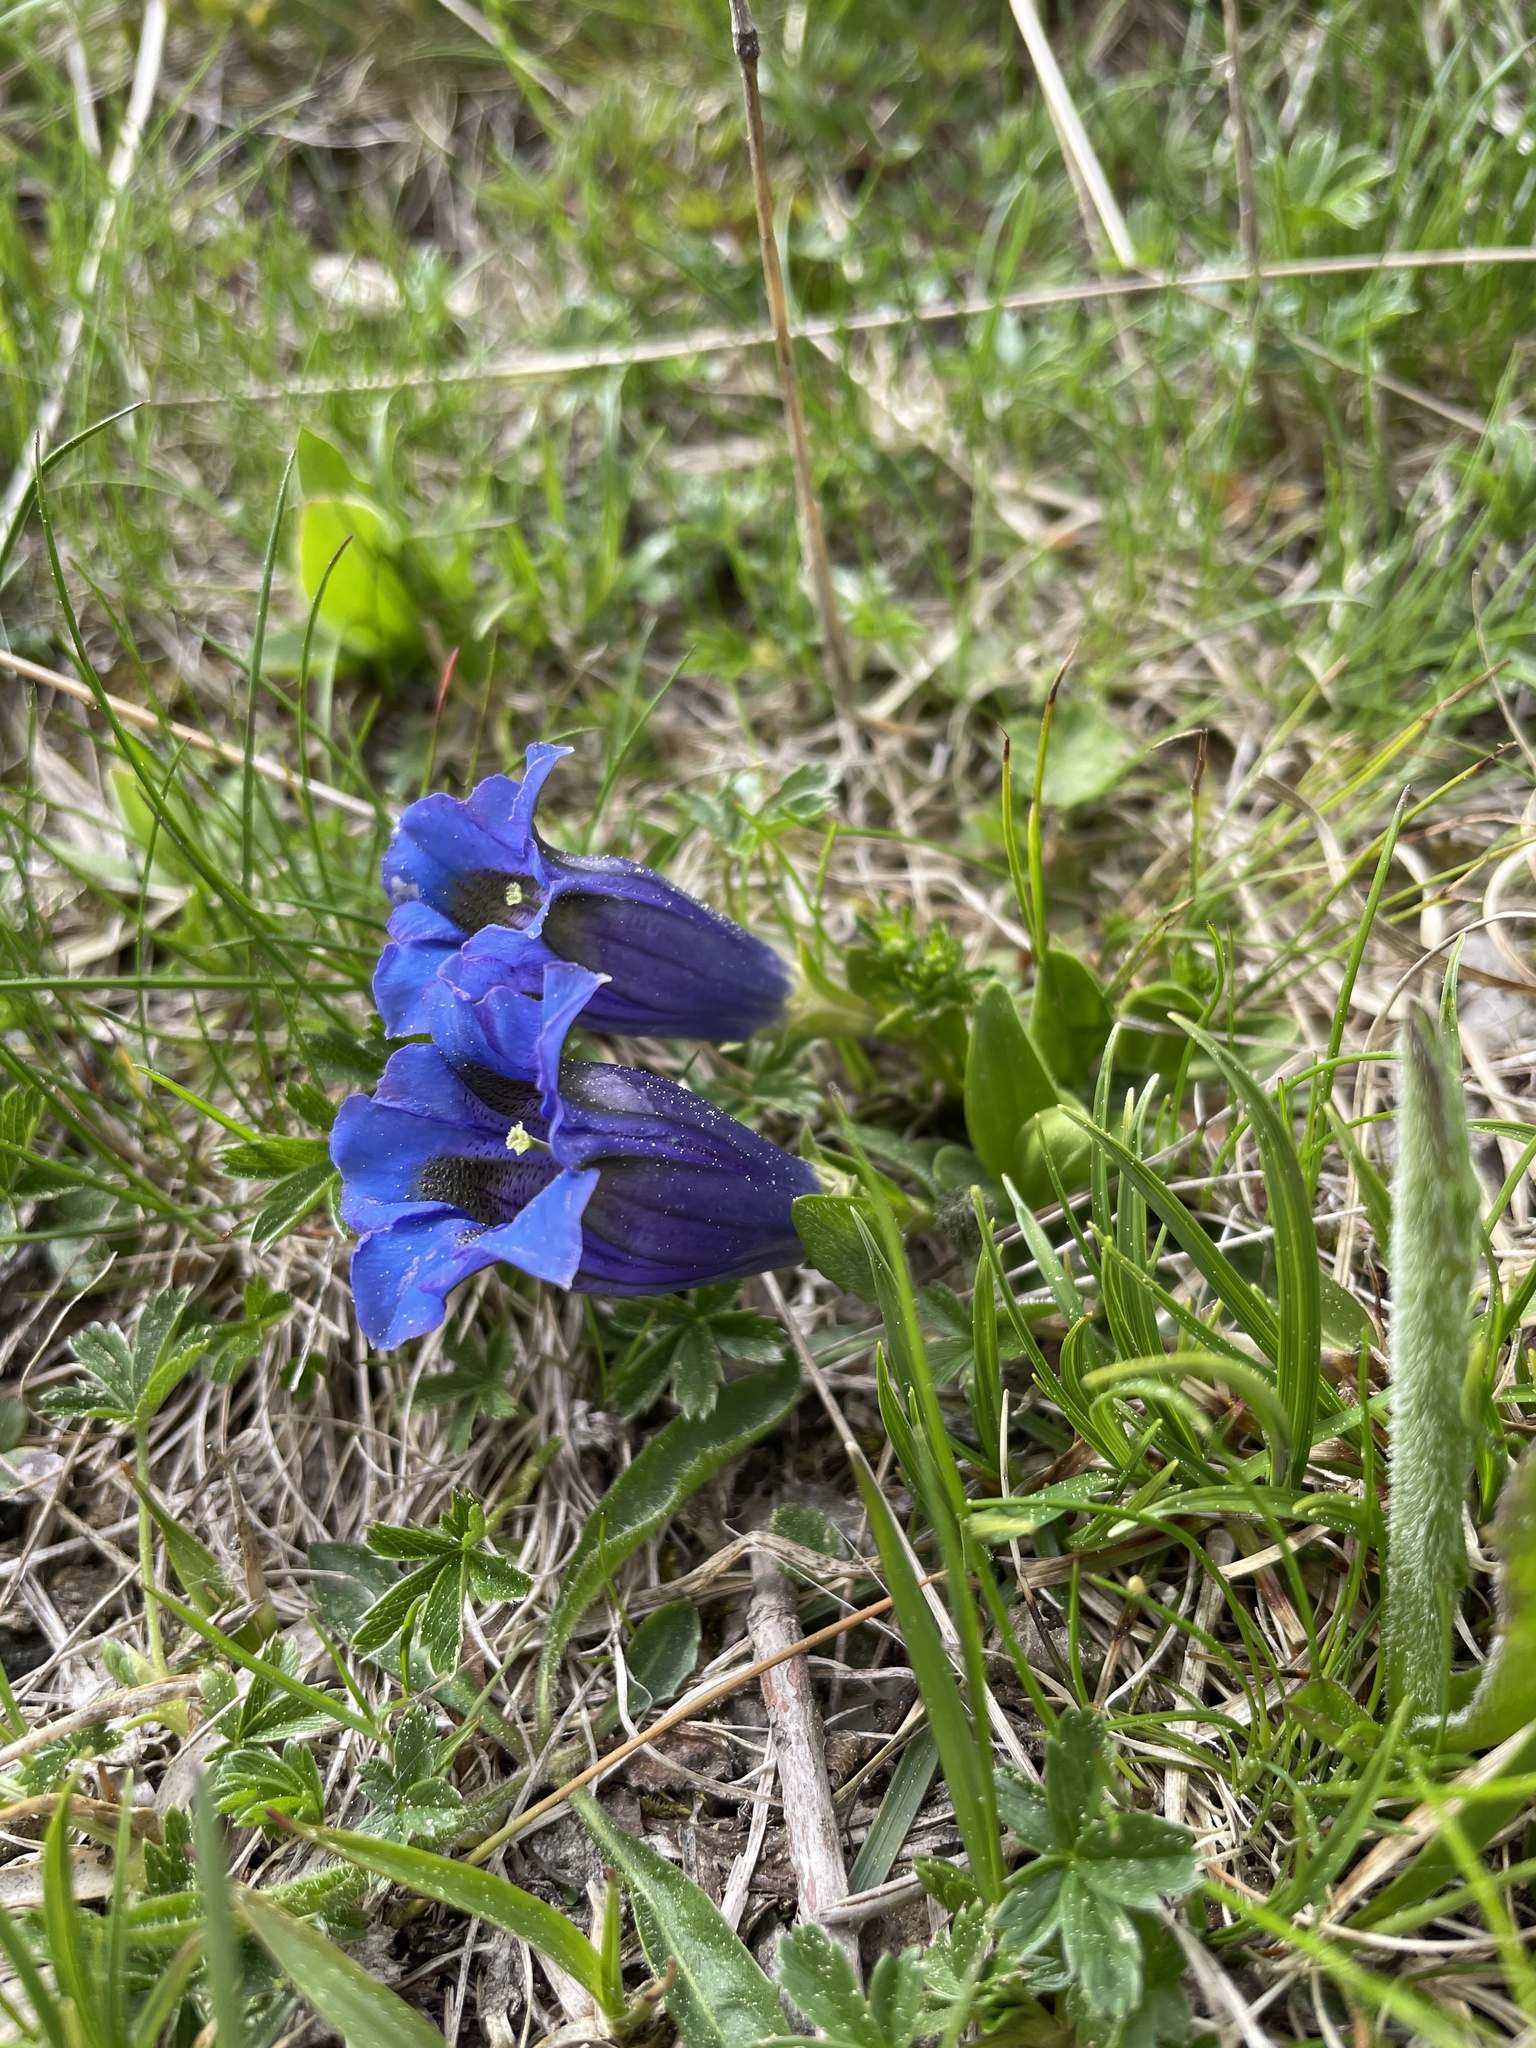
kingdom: Plantae
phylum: Tracheophyta
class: Magnoliopsida
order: Gentianales
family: Gentianaceae
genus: Gentiana
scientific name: Gentiana acaulis
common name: Trumpet gentian
